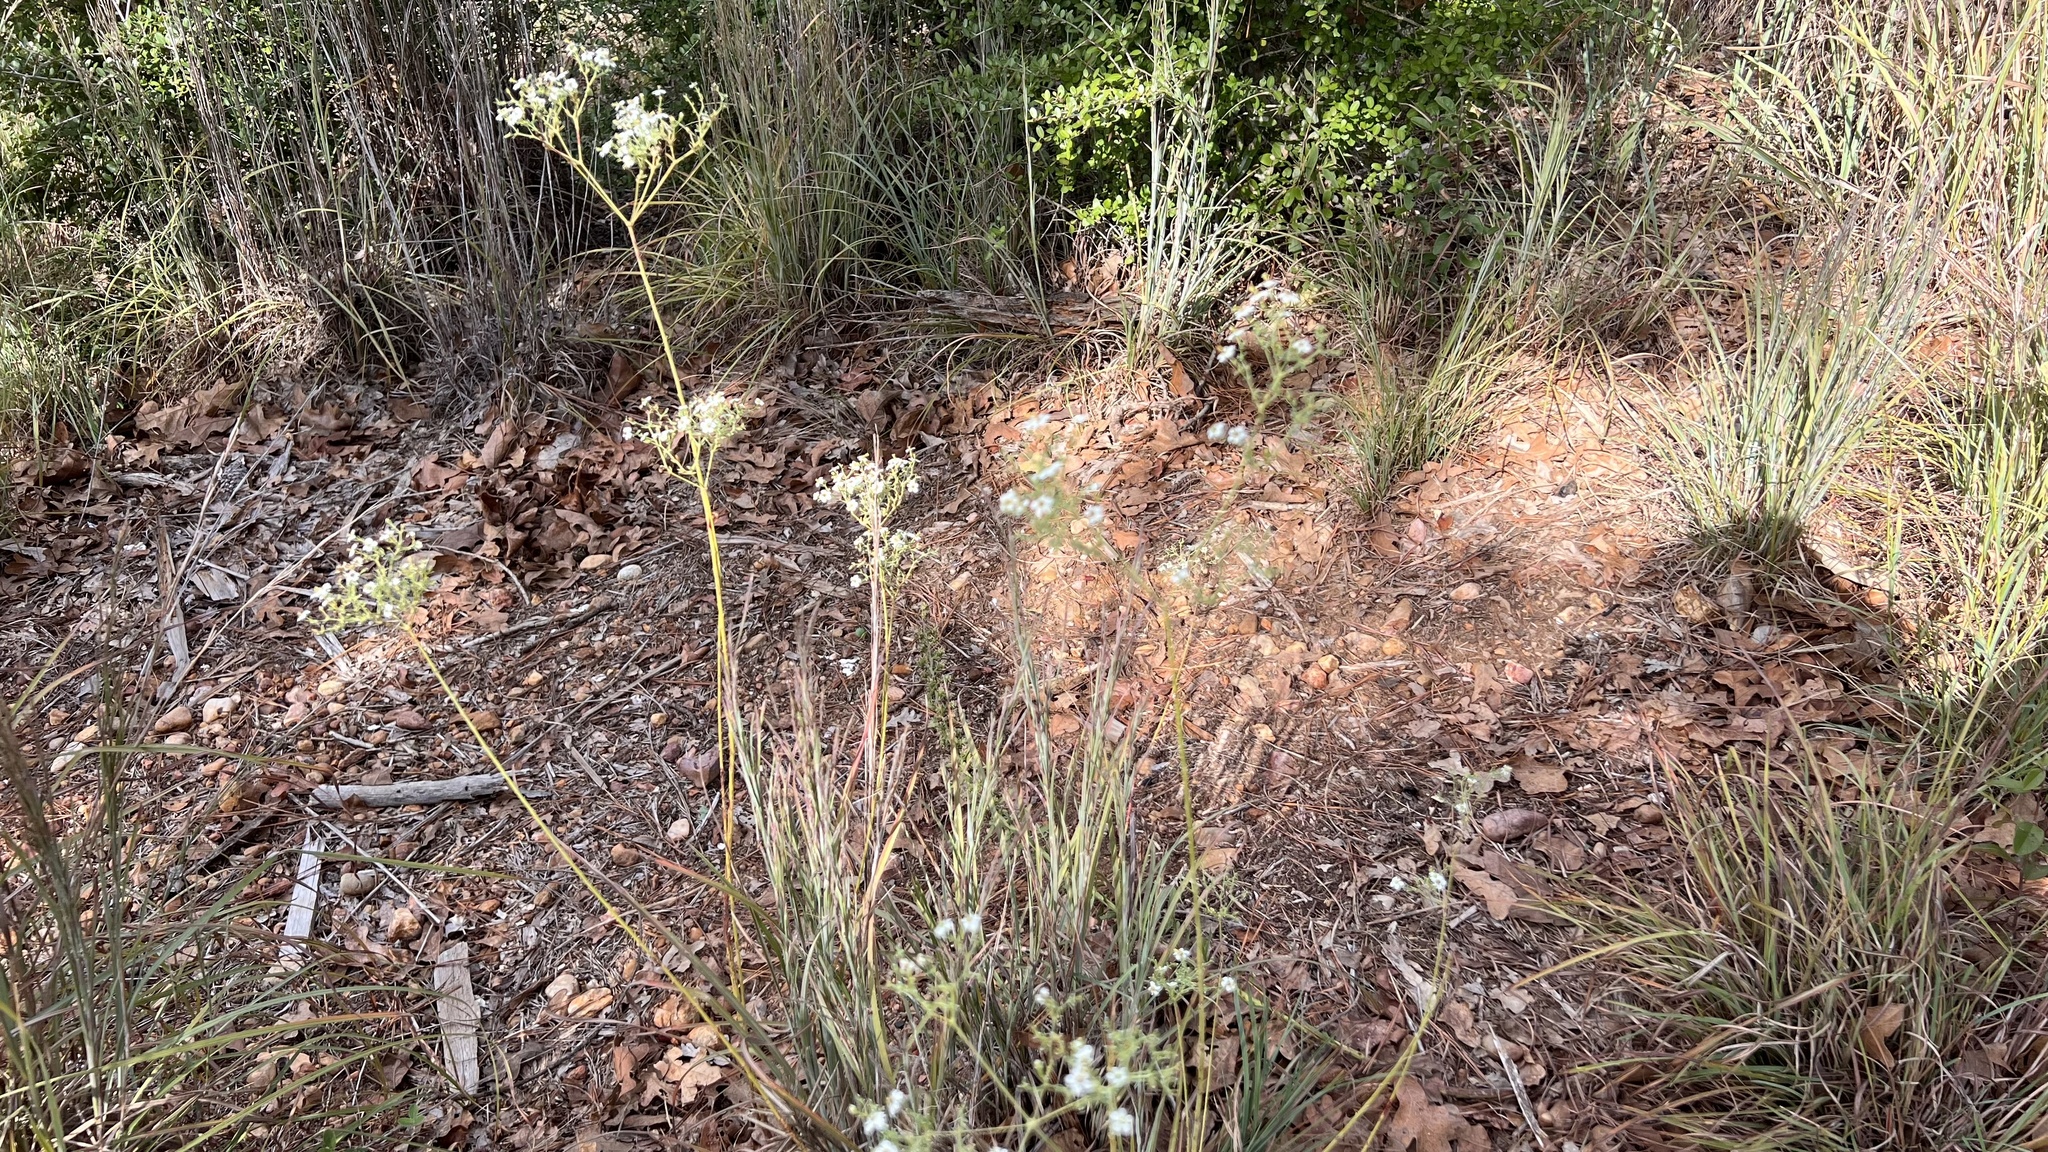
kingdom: Plantae
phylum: Tracheophyta
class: Magnoliopsida
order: Malpighiales
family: Euphorbiaceae
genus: Euphorbia
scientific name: Euphorbia corollata
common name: Flowering spurge
